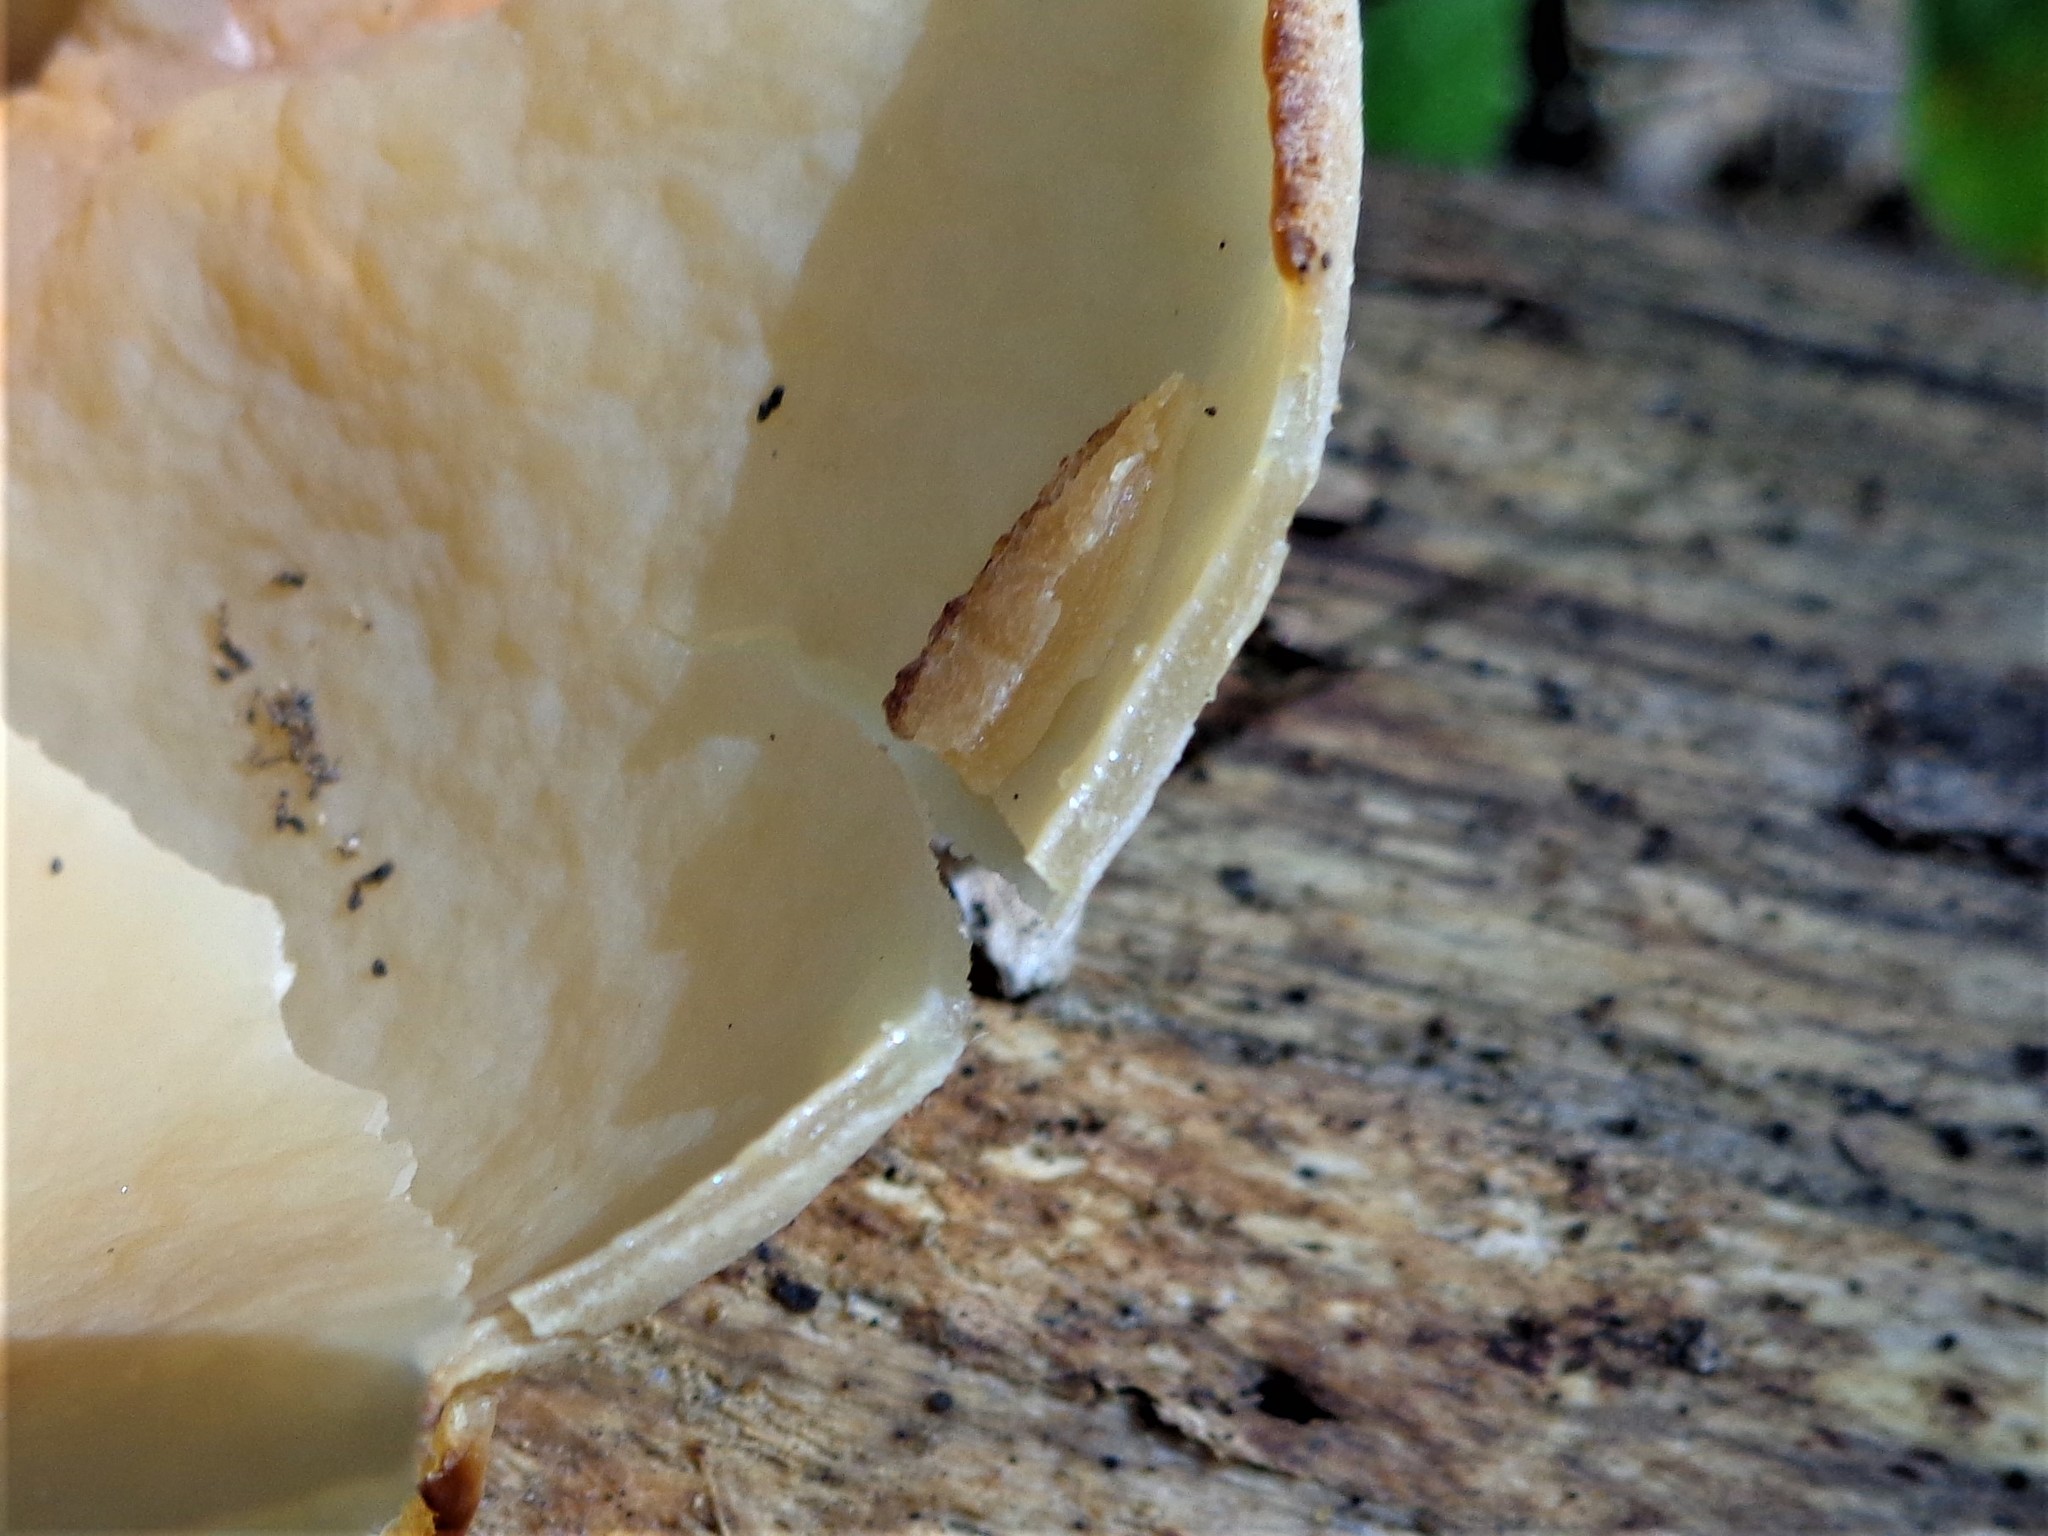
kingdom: Fungi
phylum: Ascomycota
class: Pezizomycetes
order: Pezizales
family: Pezizaceae
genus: Peziza
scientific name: Peziza varia
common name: Layered cup
